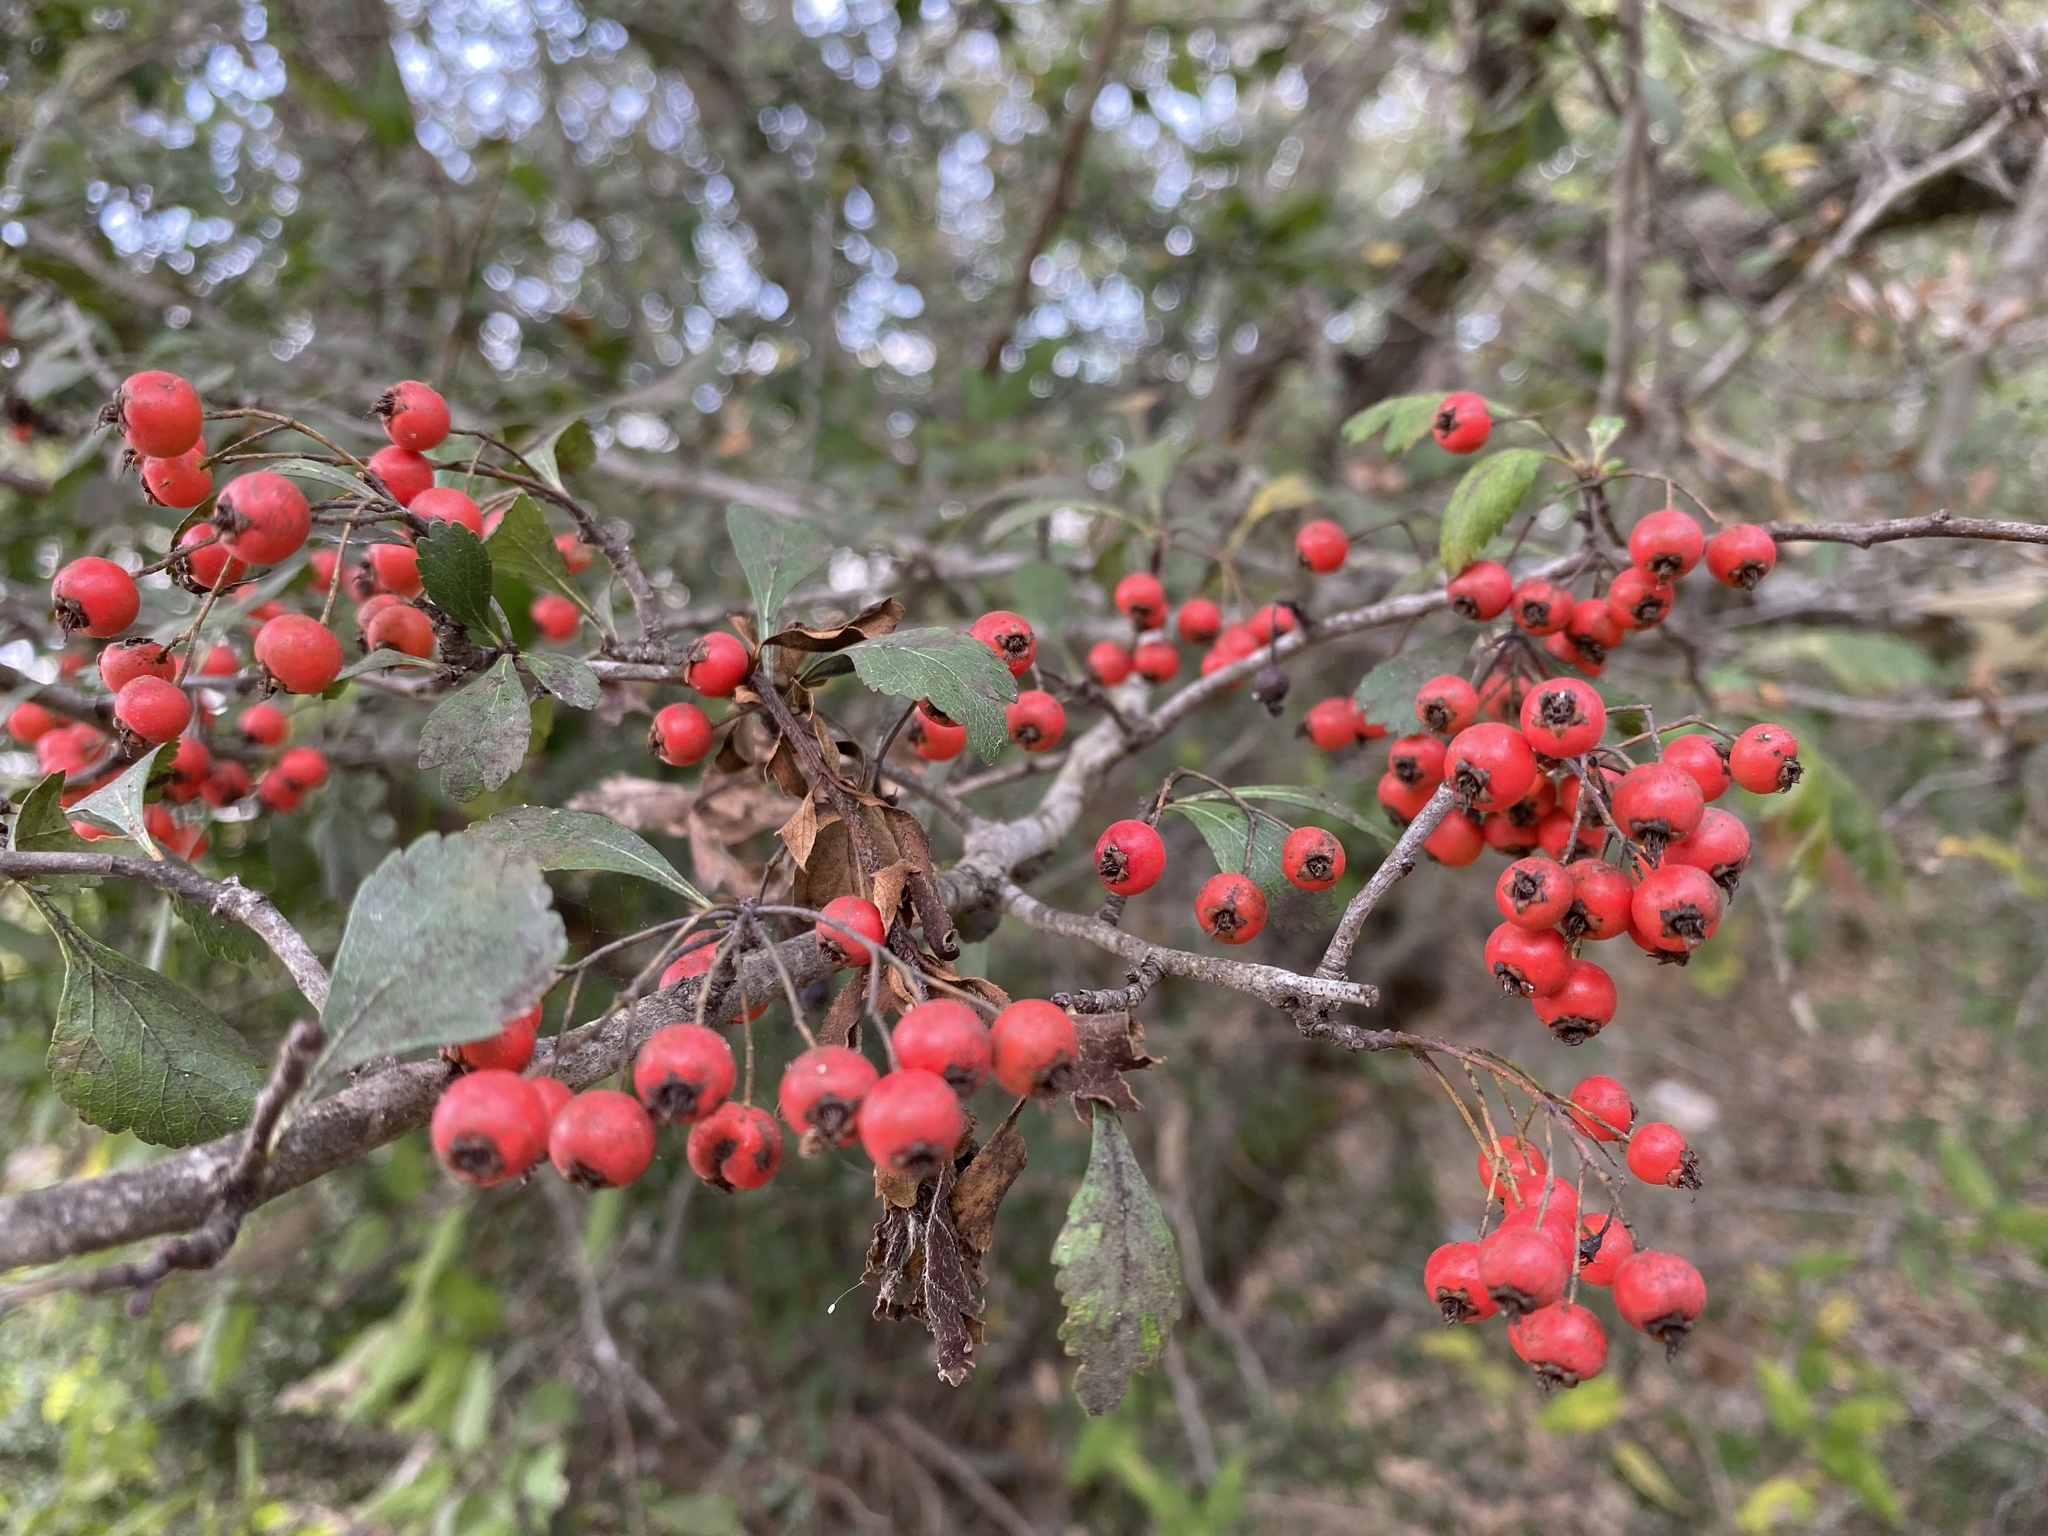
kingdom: Plantae
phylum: Tracheophyta
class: Magnoliopsida
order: Rosales
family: Rosaceae
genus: Crataegus
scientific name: Crataegus spathulata
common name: Littlehip hawthorn
